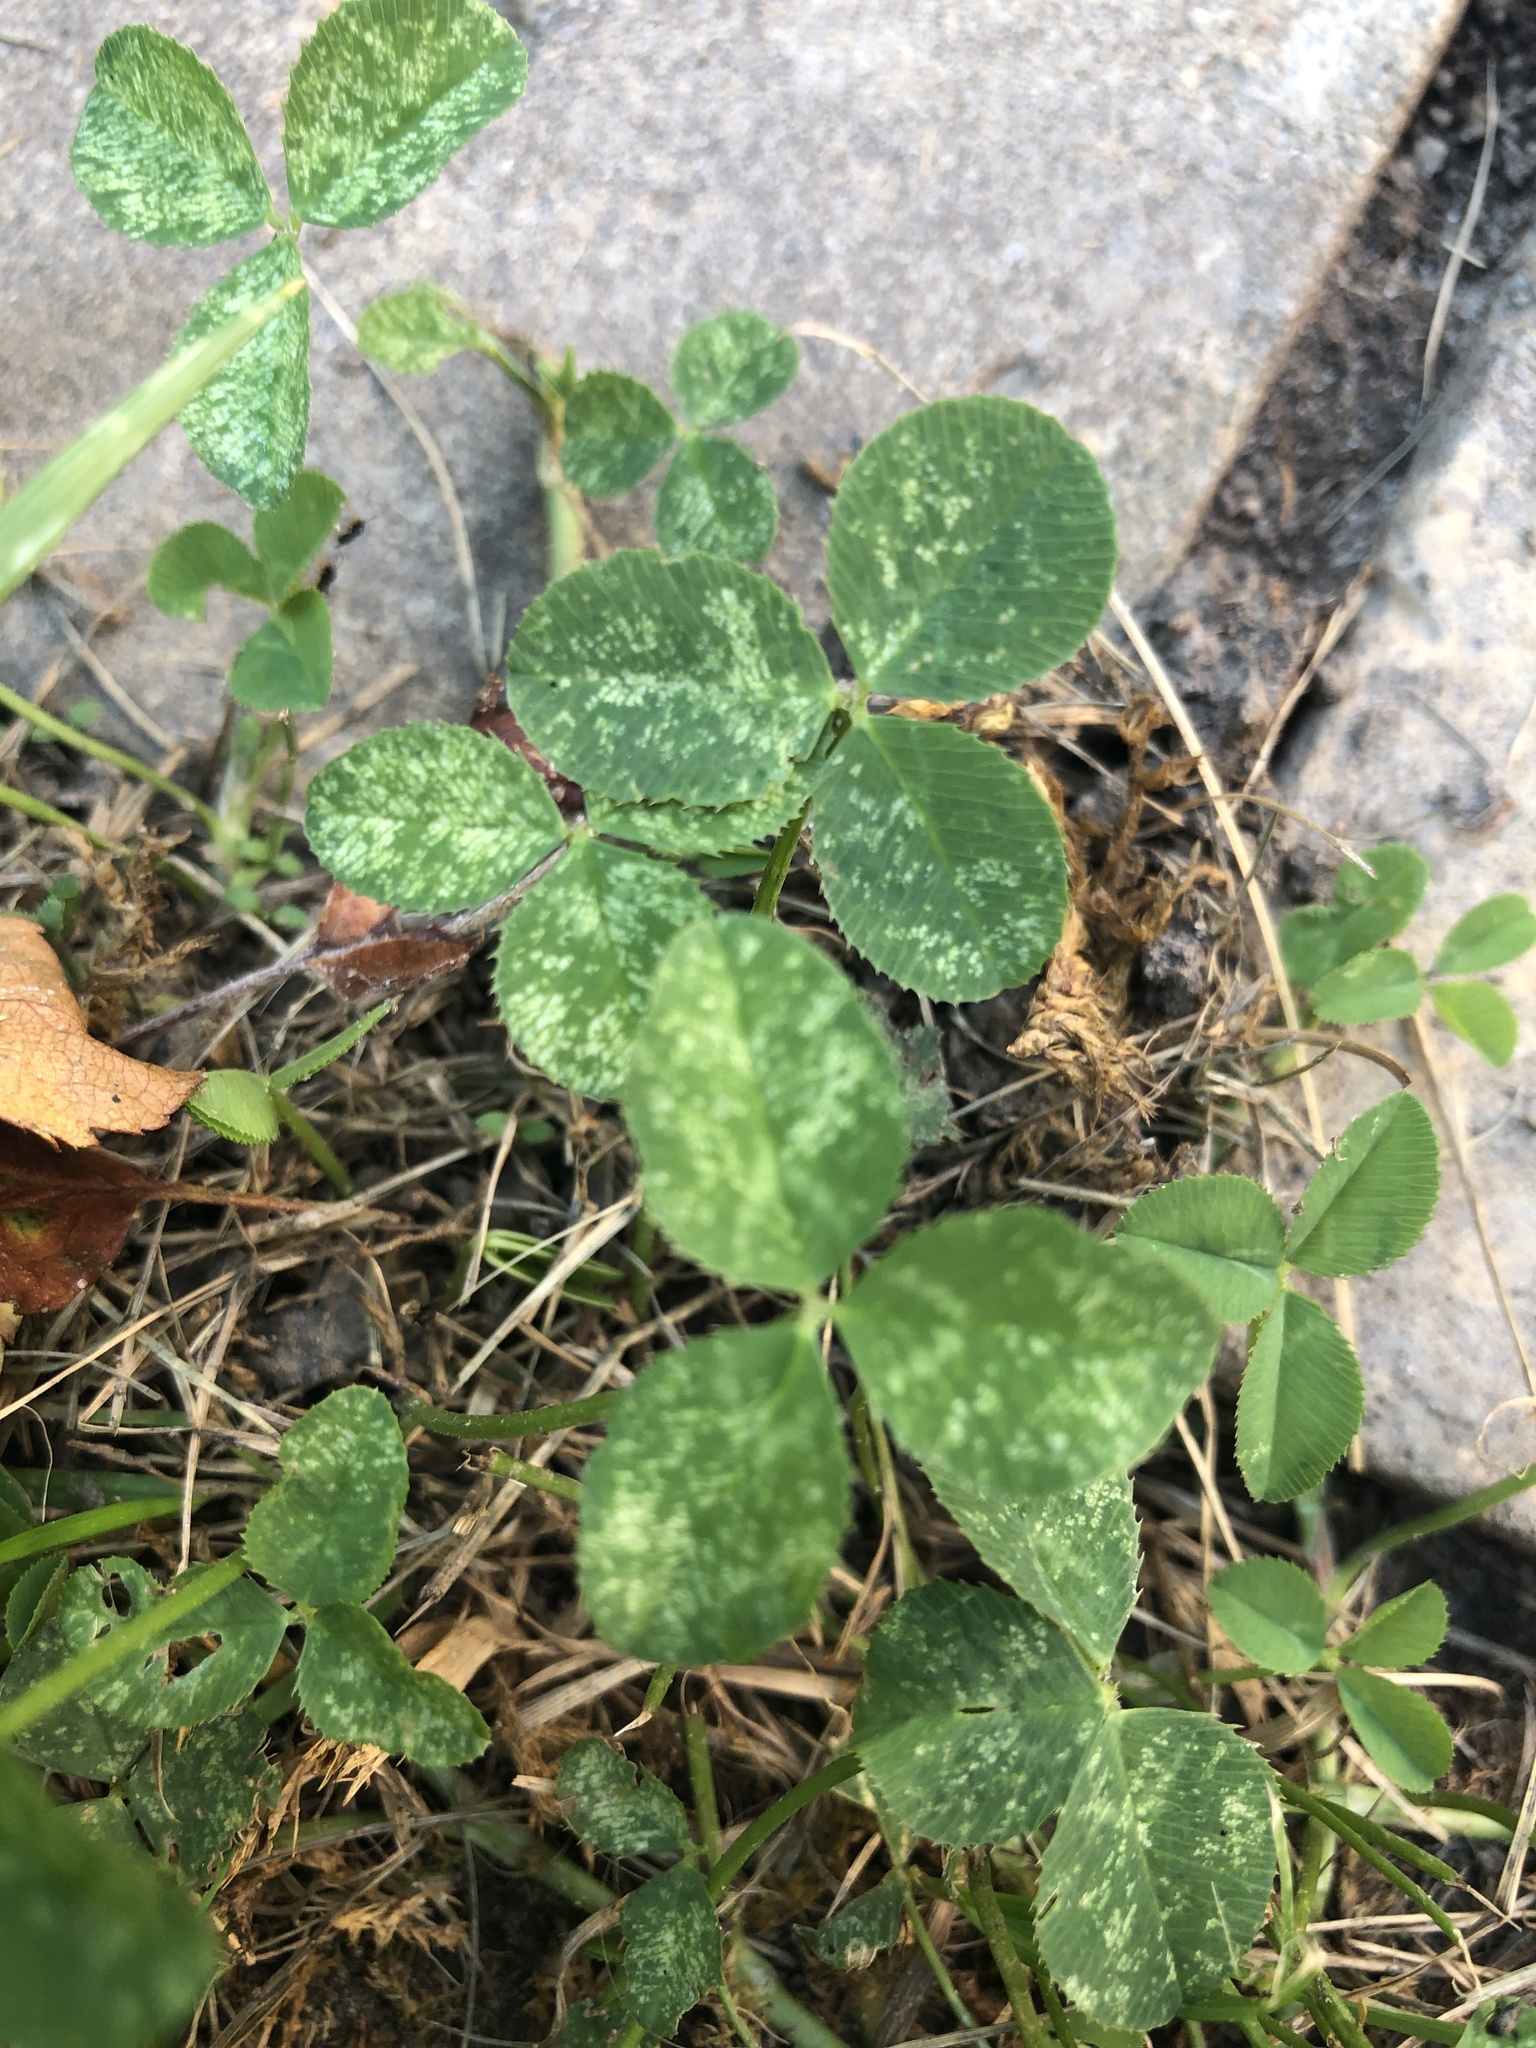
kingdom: Plantae
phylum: Tracheophyta
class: Magnoliopsida
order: Fabales
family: Fabaceae
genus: Trifolium
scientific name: Trifolium repens
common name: White clover
